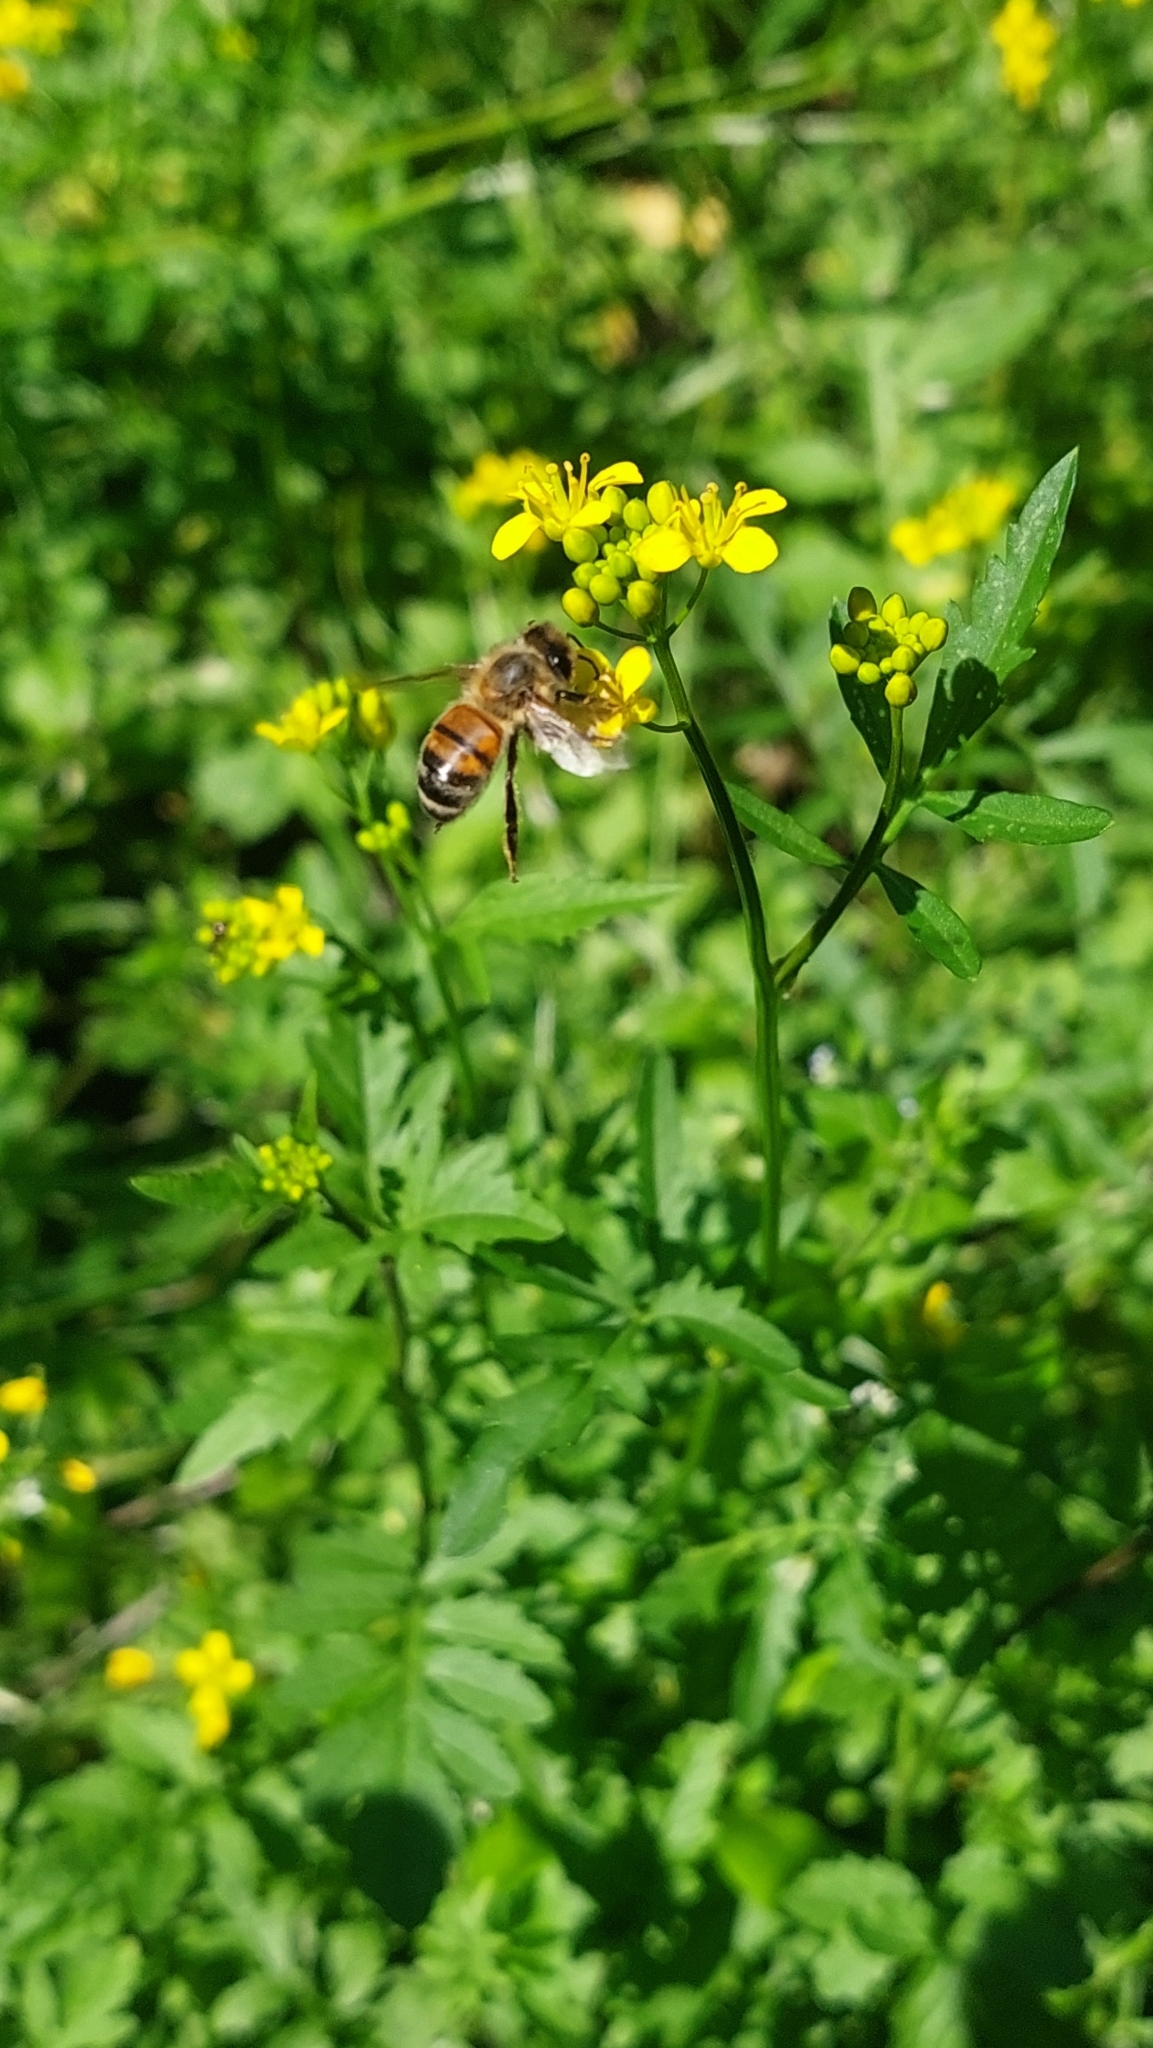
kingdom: Animalia
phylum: Arthropoda
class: Insecta
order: Hymenoptera
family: Apidae
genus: Apis
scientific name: Apis mellifera
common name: Honey bee
